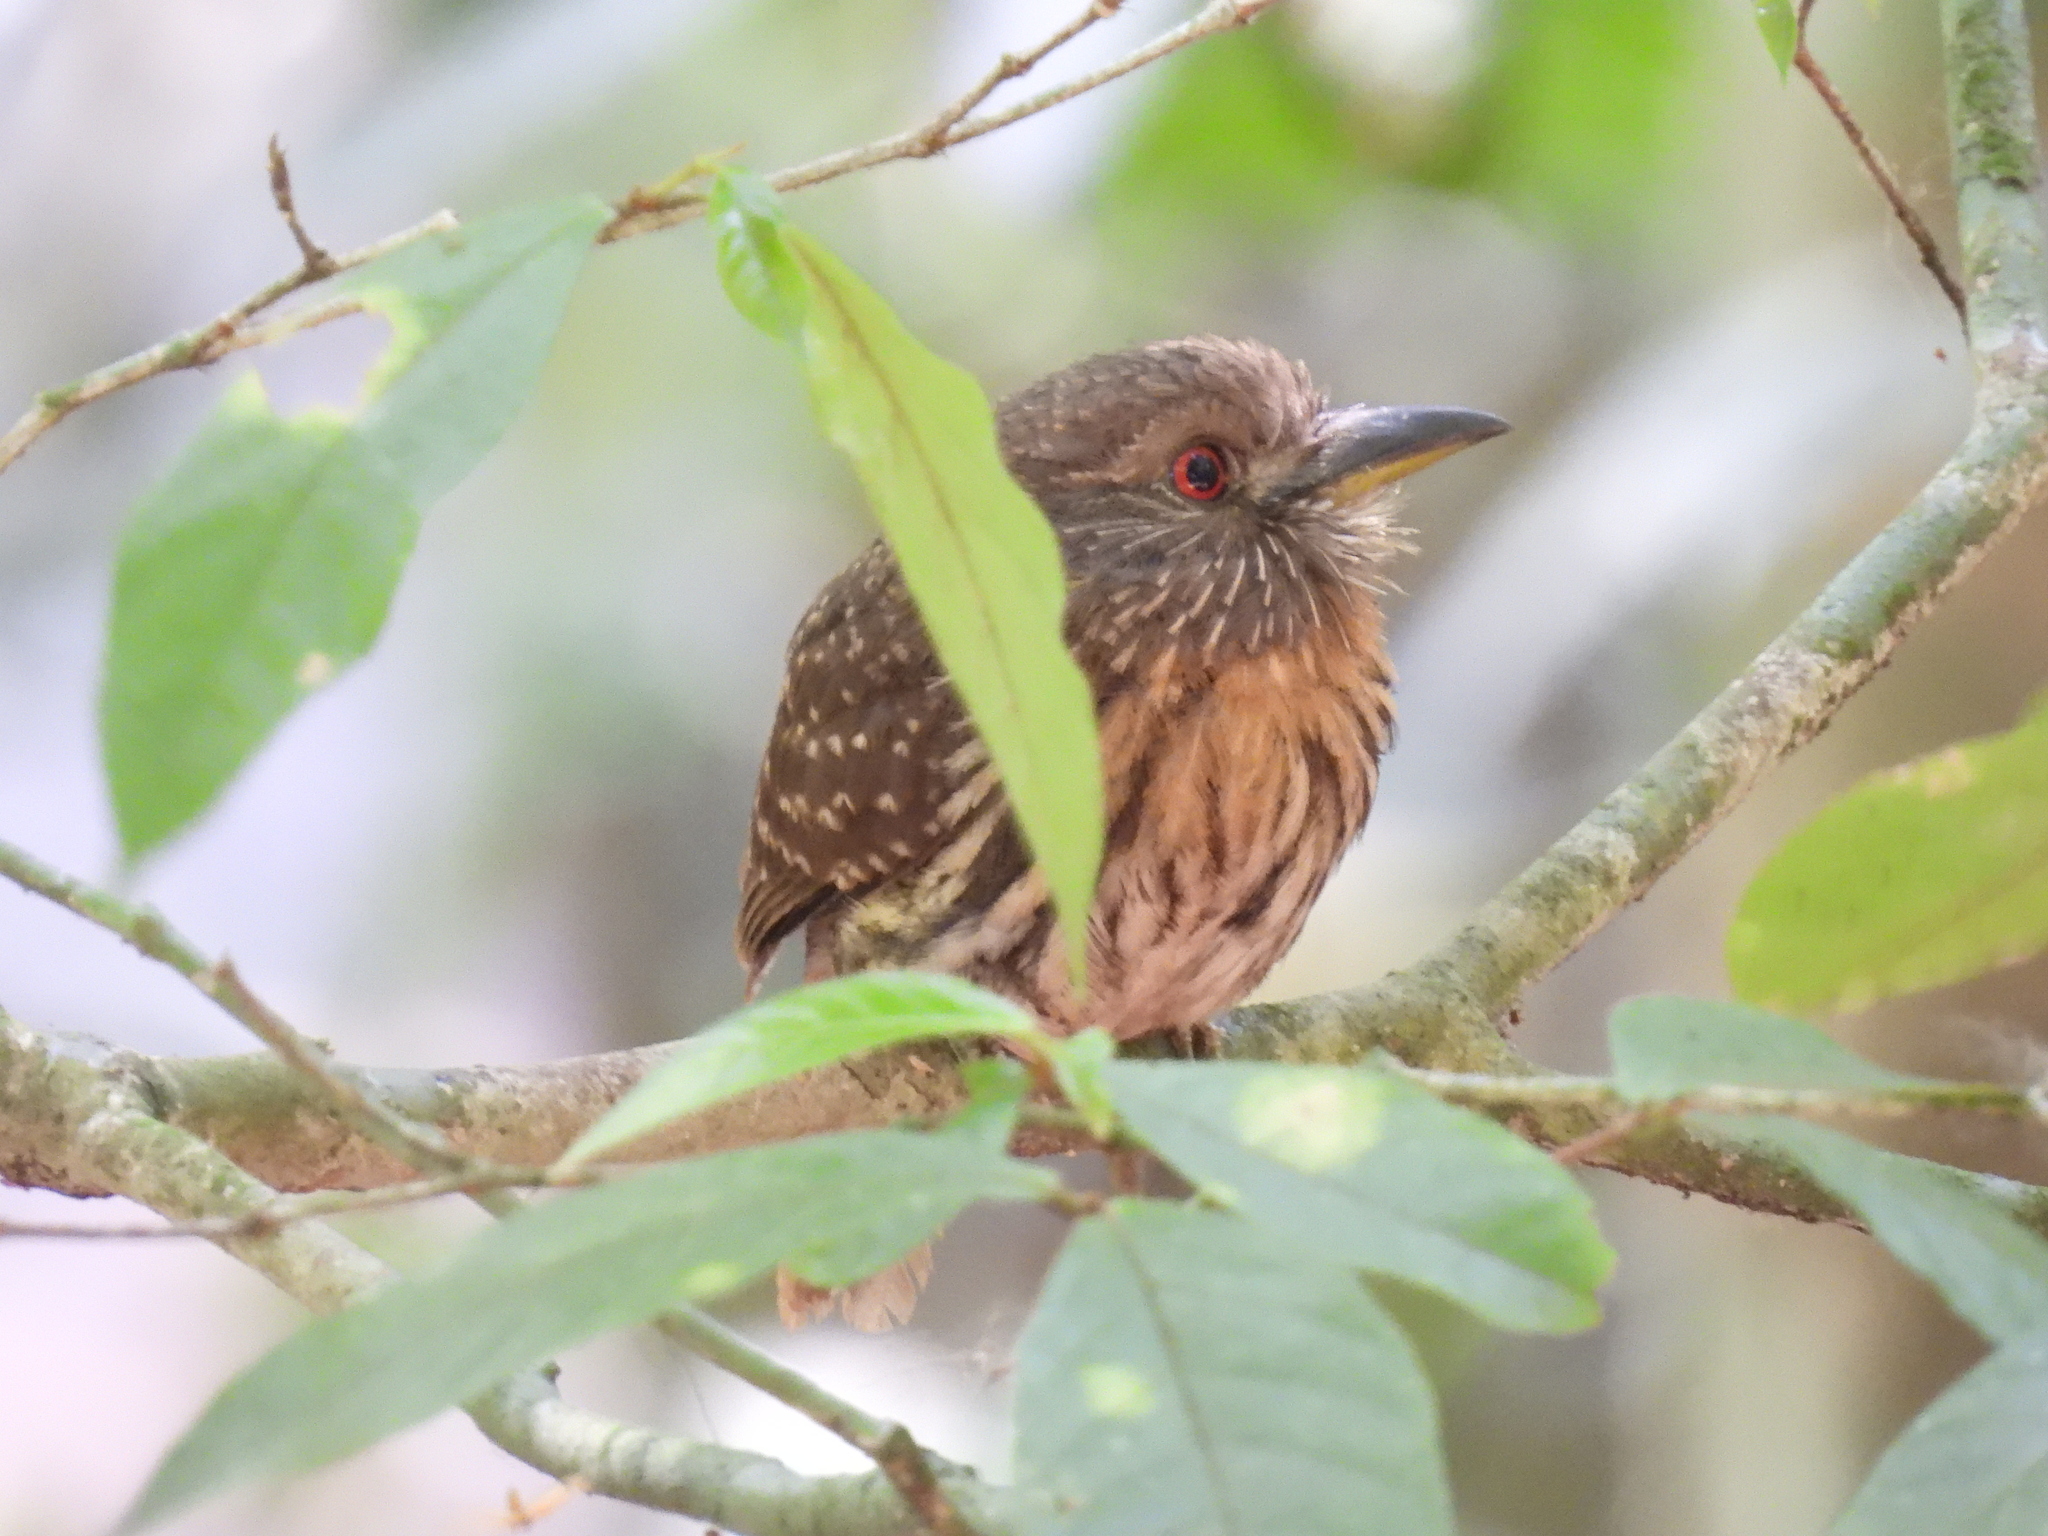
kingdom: Animalia
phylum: Chordata
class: Aves
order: Piciformes
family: Bucconidae
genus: Malacoptila
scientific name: Malacoptila panamensis
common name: White-whiskered puffbird
